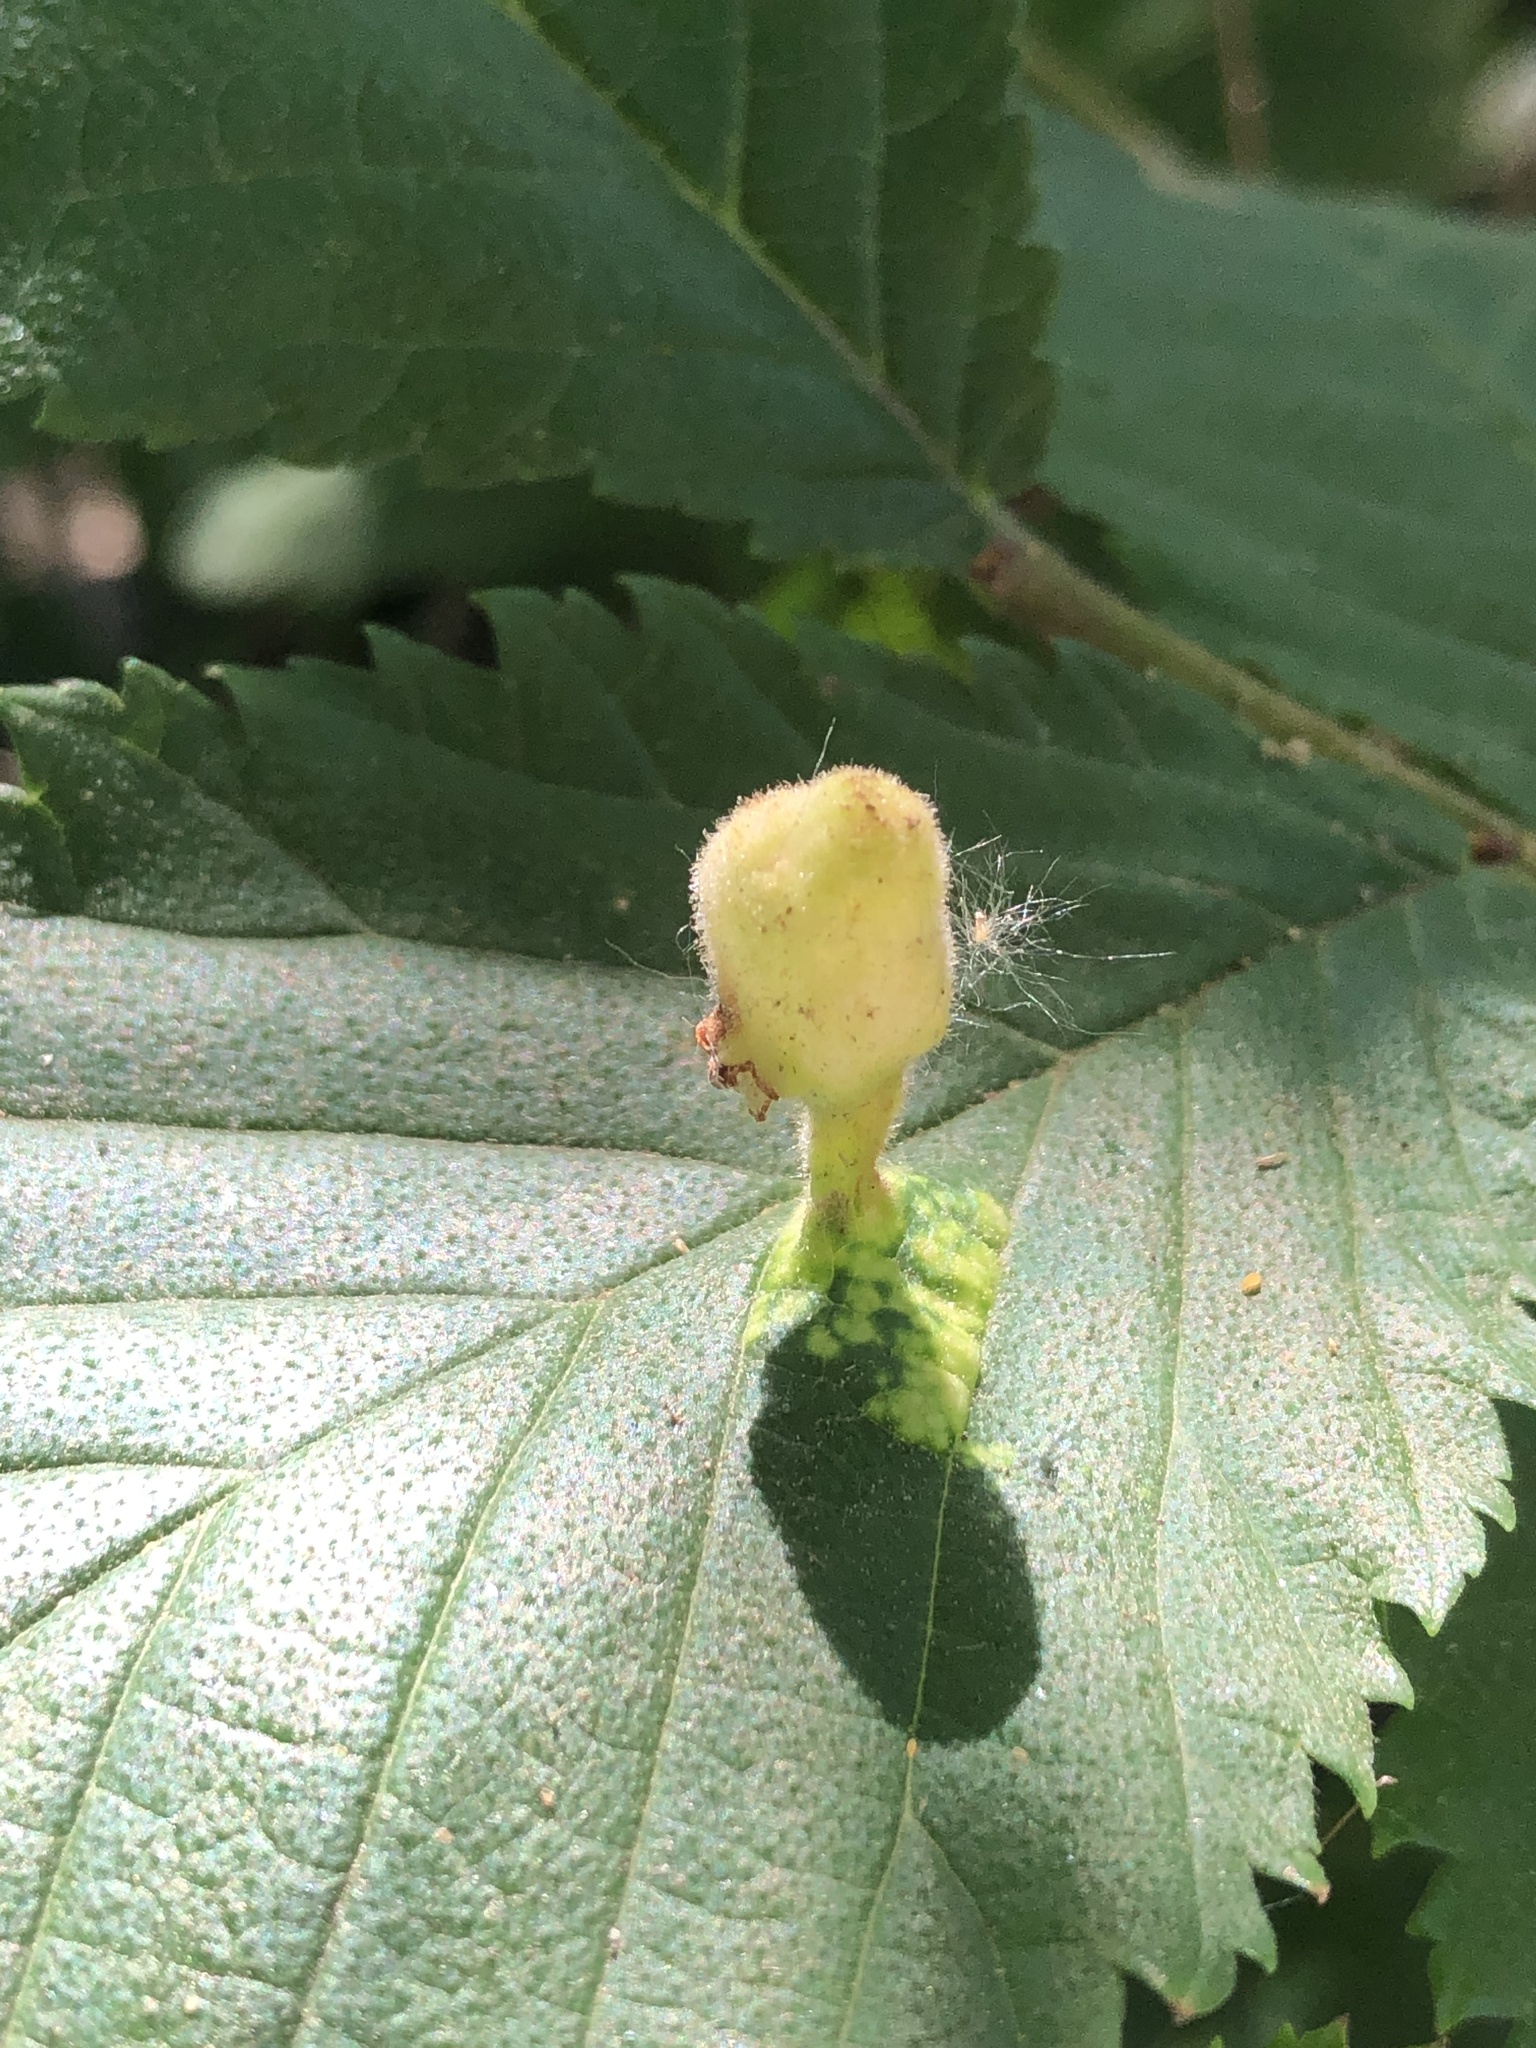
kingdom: Animalia
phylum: Arthropoda
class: Insecta
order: Hemiptera
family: Aphididae
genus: Tetraneura
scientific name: Tetraneura nigriabdominalis
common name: Aphid
